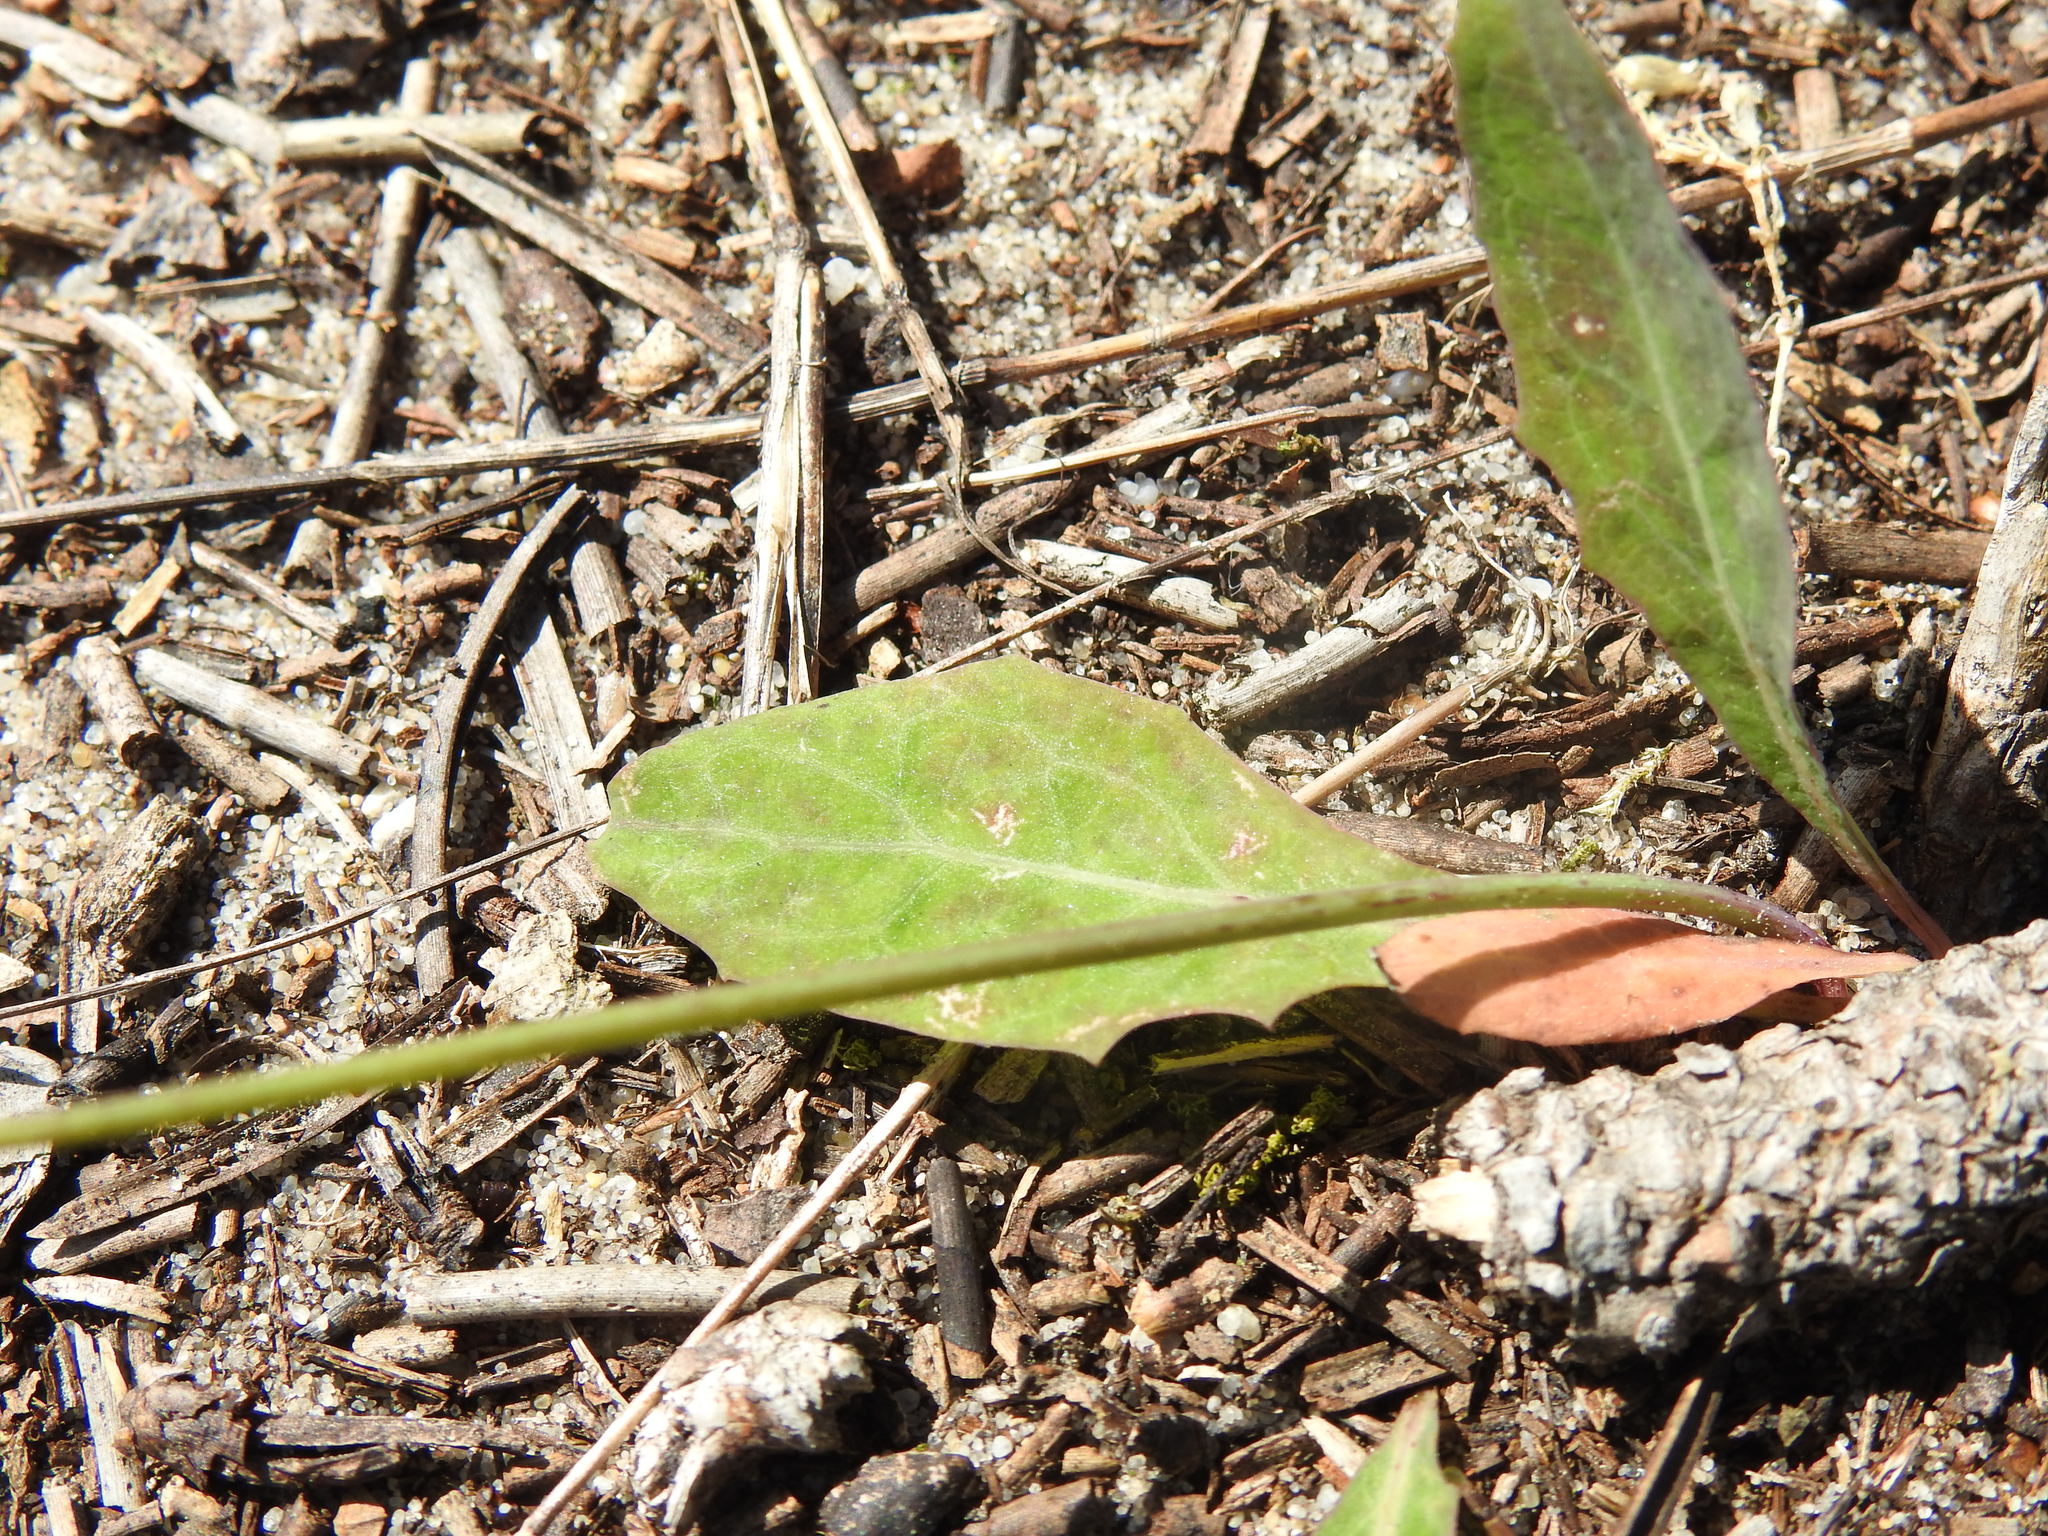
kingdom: Plantae
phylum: Tracheophyta
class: Magnoliopsida
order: Asterales
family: Asteraceae
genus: Aetheorhiza
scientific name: Aetheorhiza bulbosa
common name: Tuberous hawk's-beard
